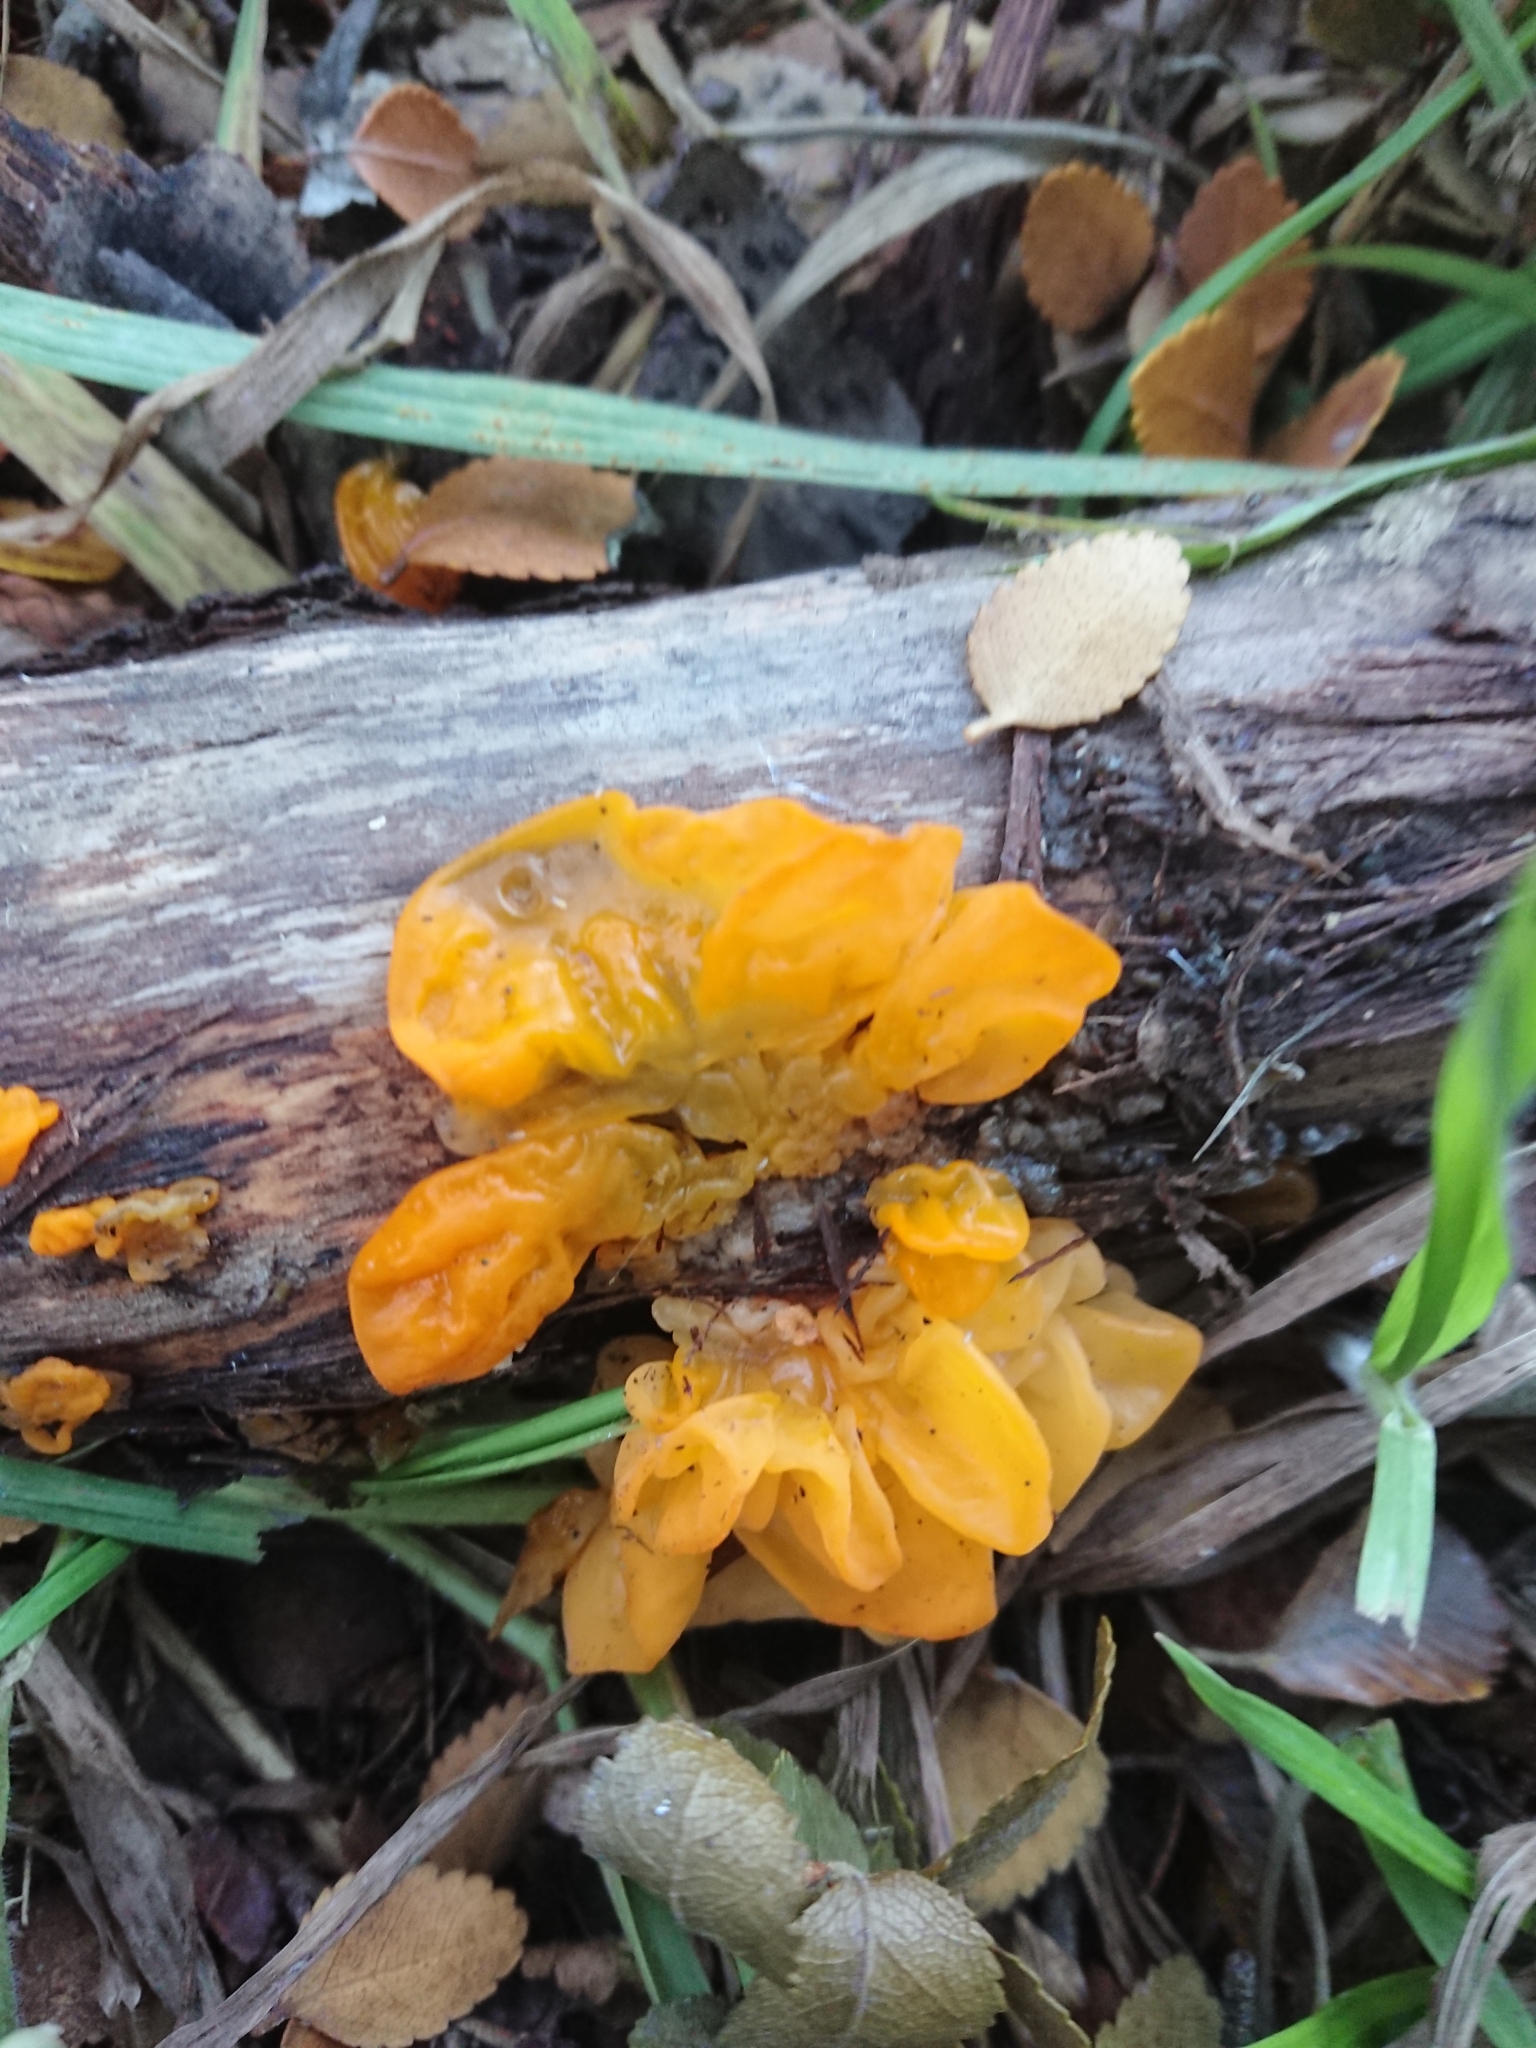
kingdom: Fungi
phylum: Basidiomycota
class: Tremellomycetes
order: Tremellales
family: Tremellaceae
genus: Tremella
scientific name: Tremella mesenterica
